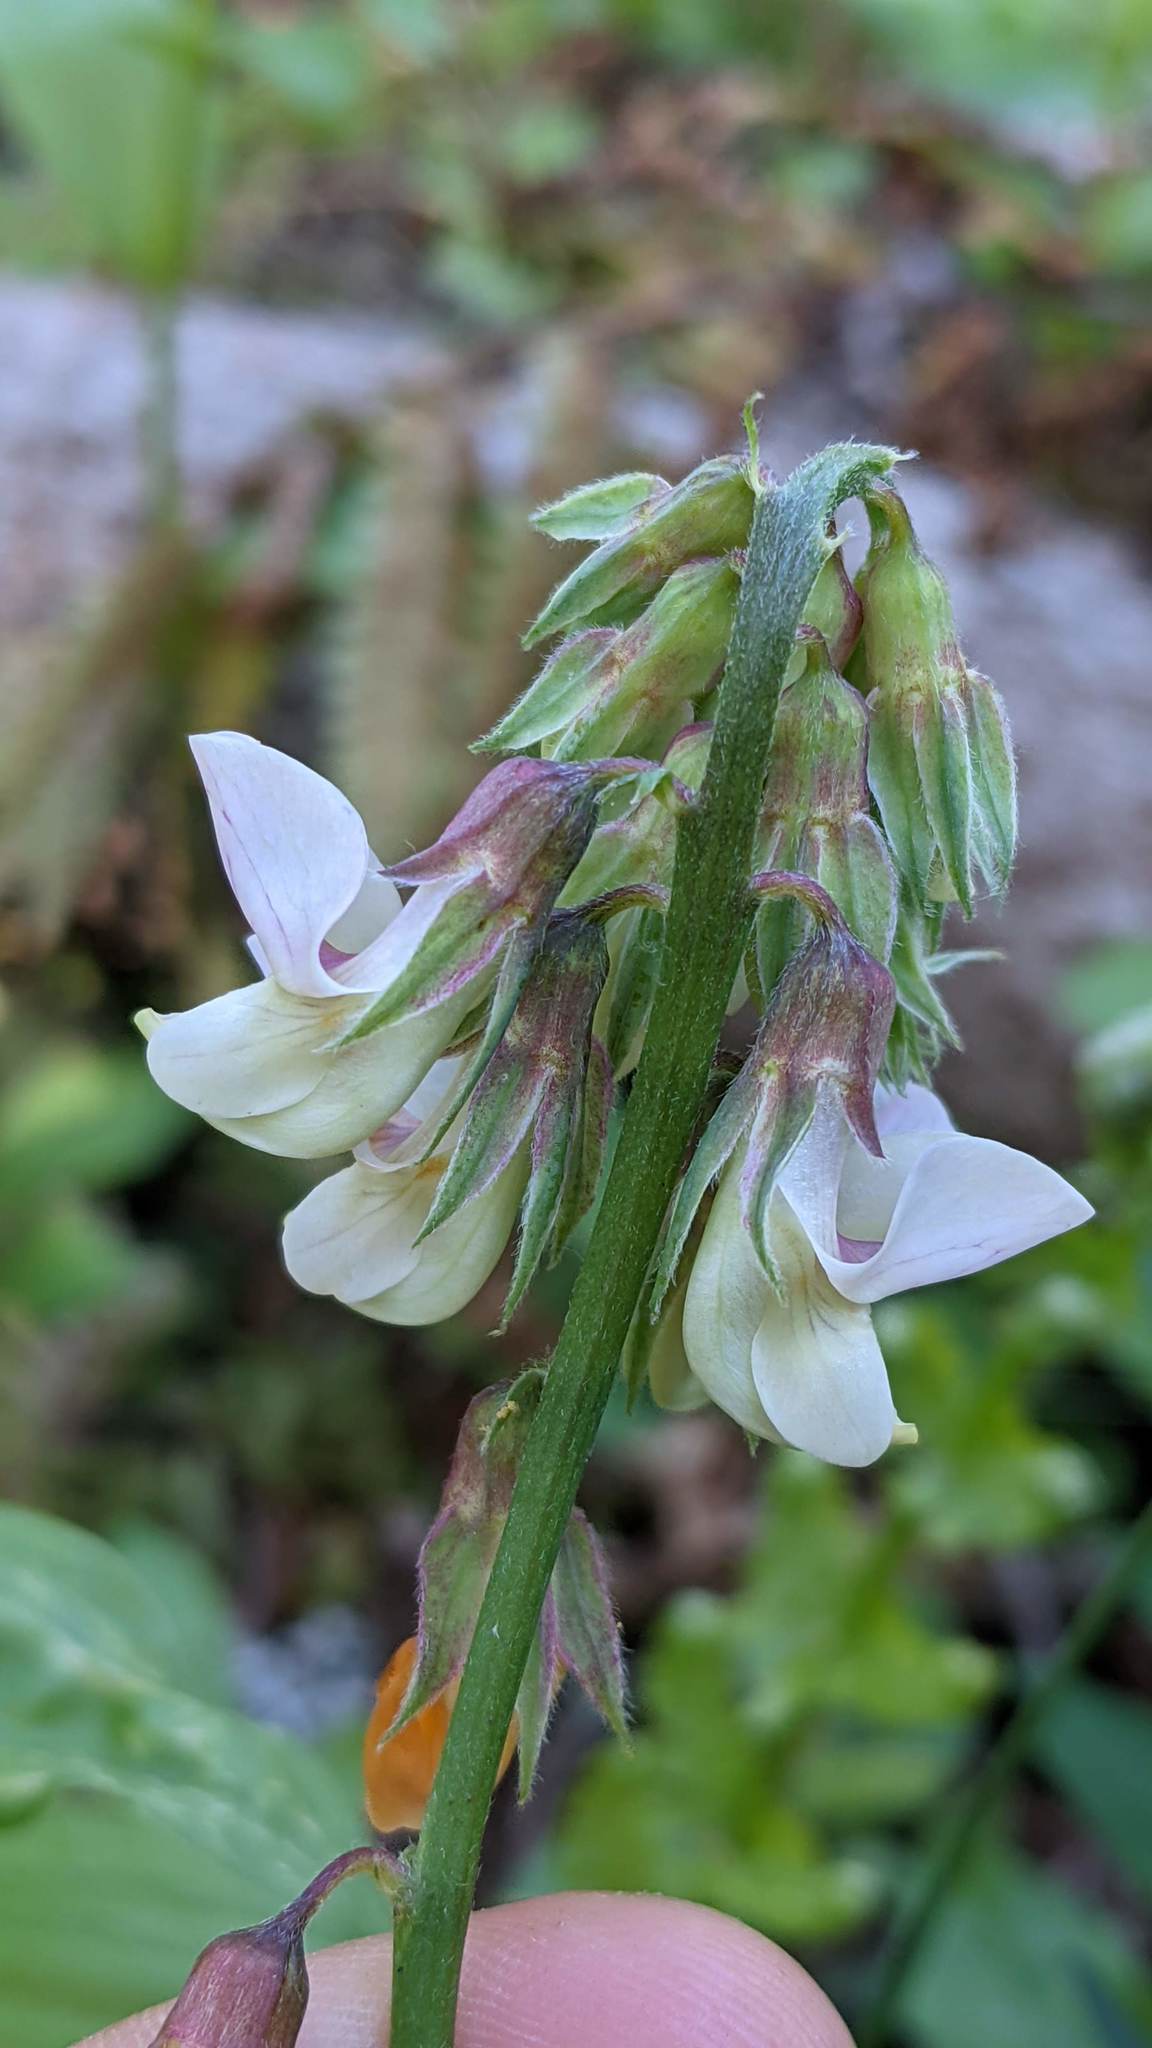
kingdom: Plantae
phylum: Tracheophyta
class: Magnoliopsida
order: Fabales
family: Fabaceae
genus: Lathyrus
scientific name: Lathyrus vestitus
